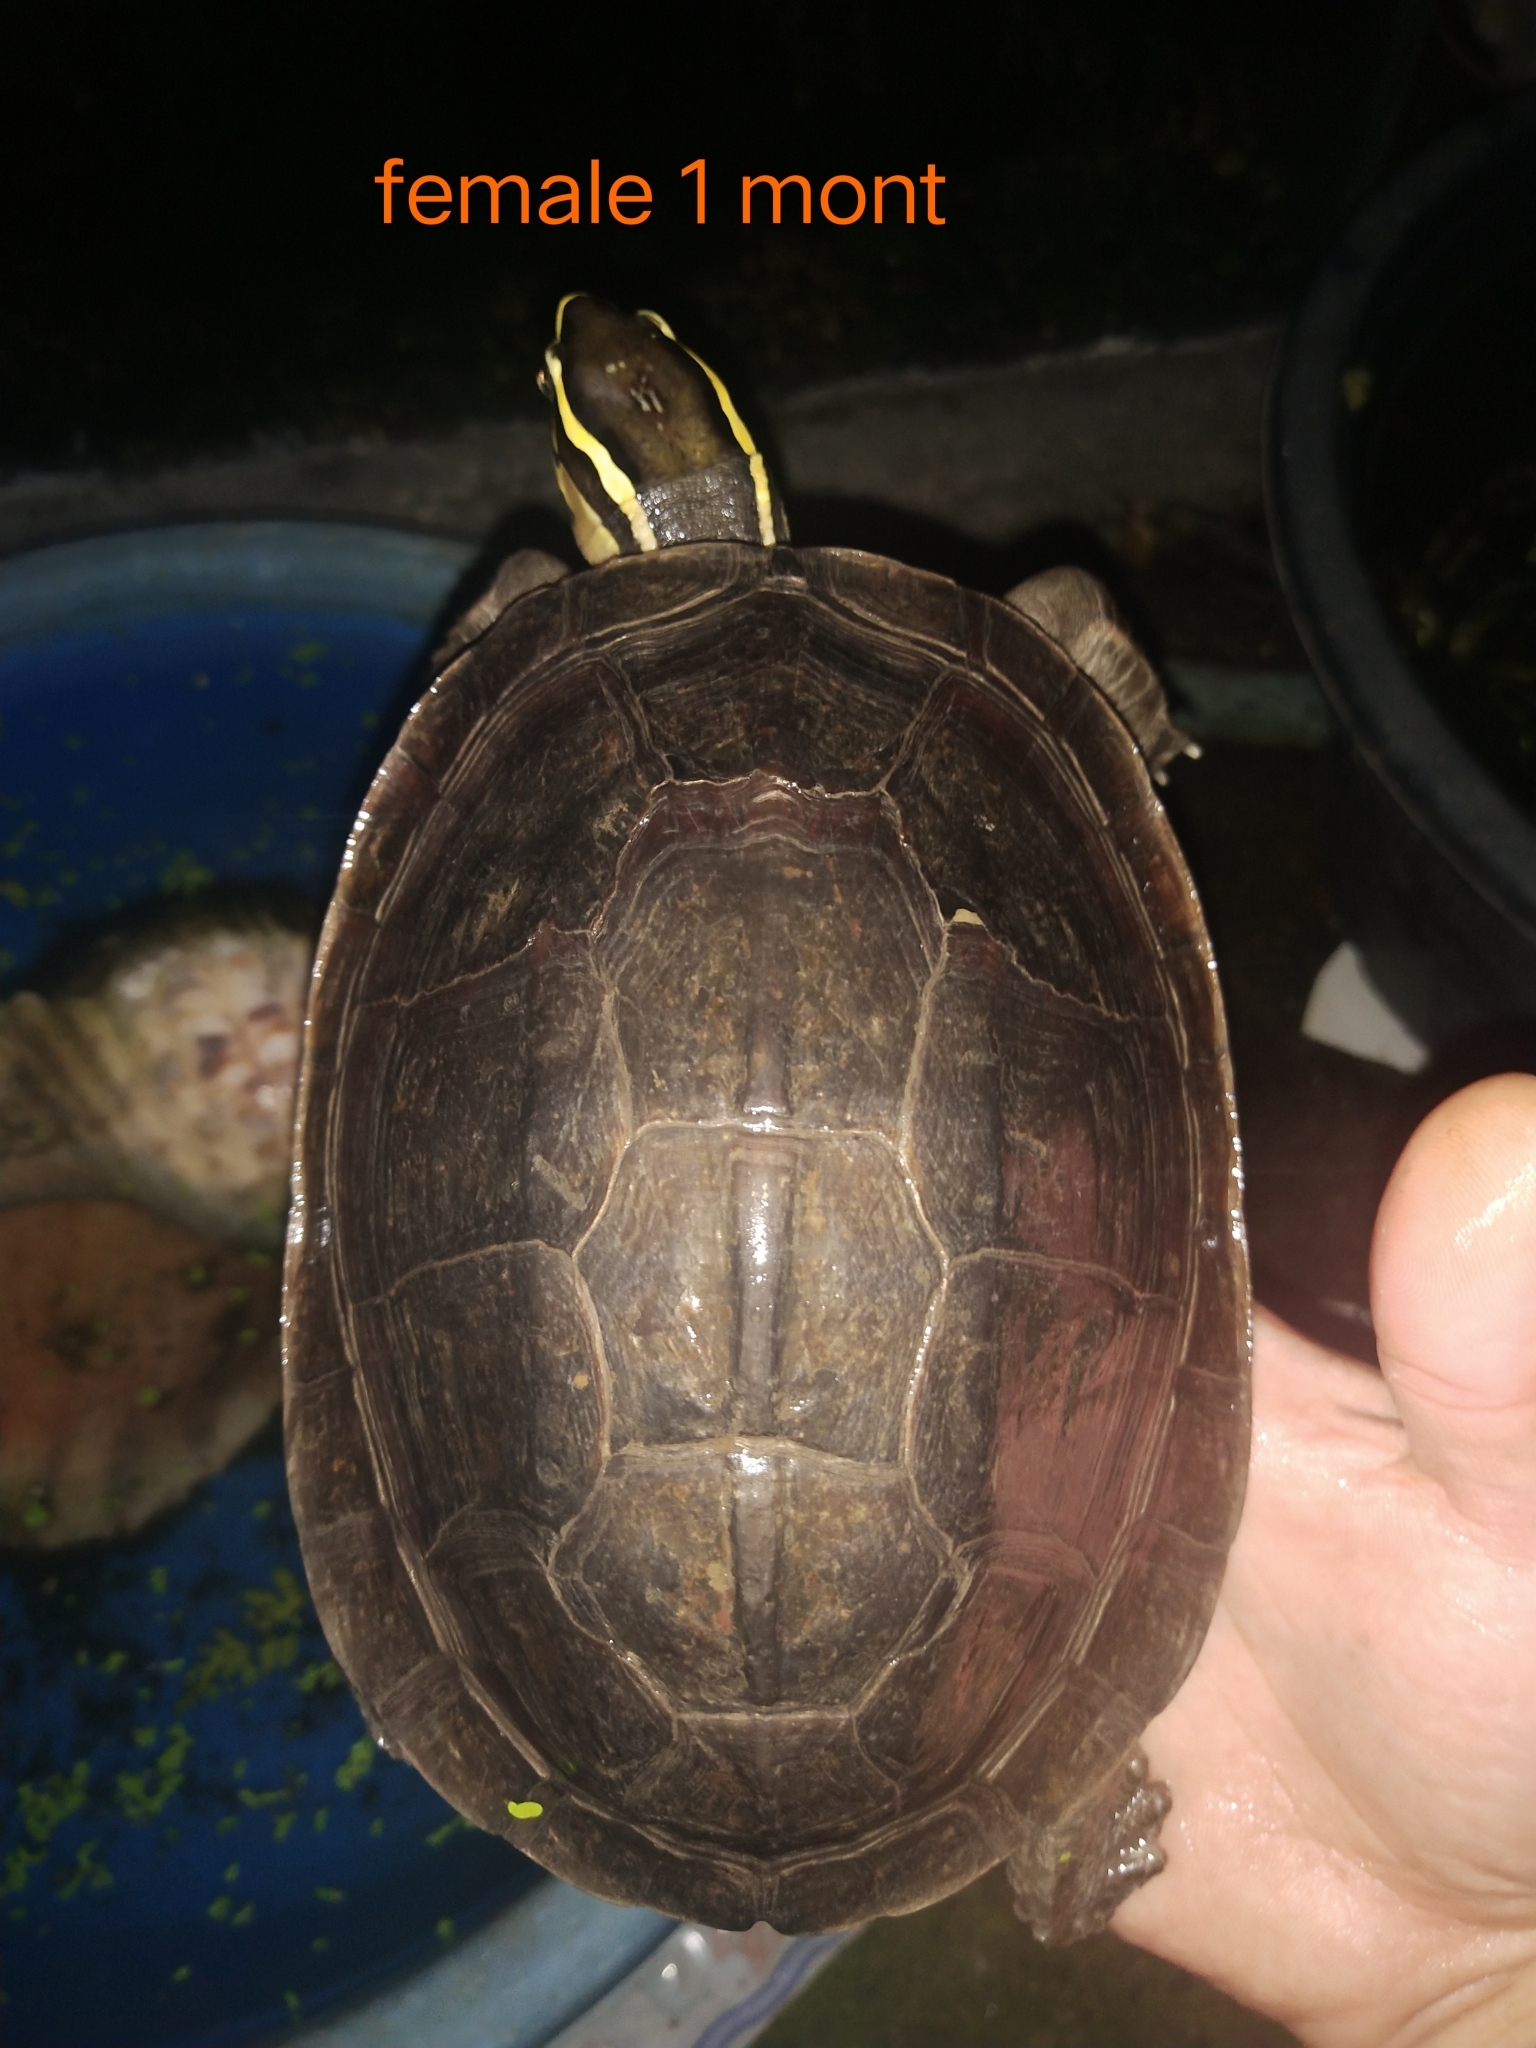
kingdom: Animalia
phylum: Chordata
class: Testudines
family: Geoemydidae
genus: Cuora
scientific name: Cuora
